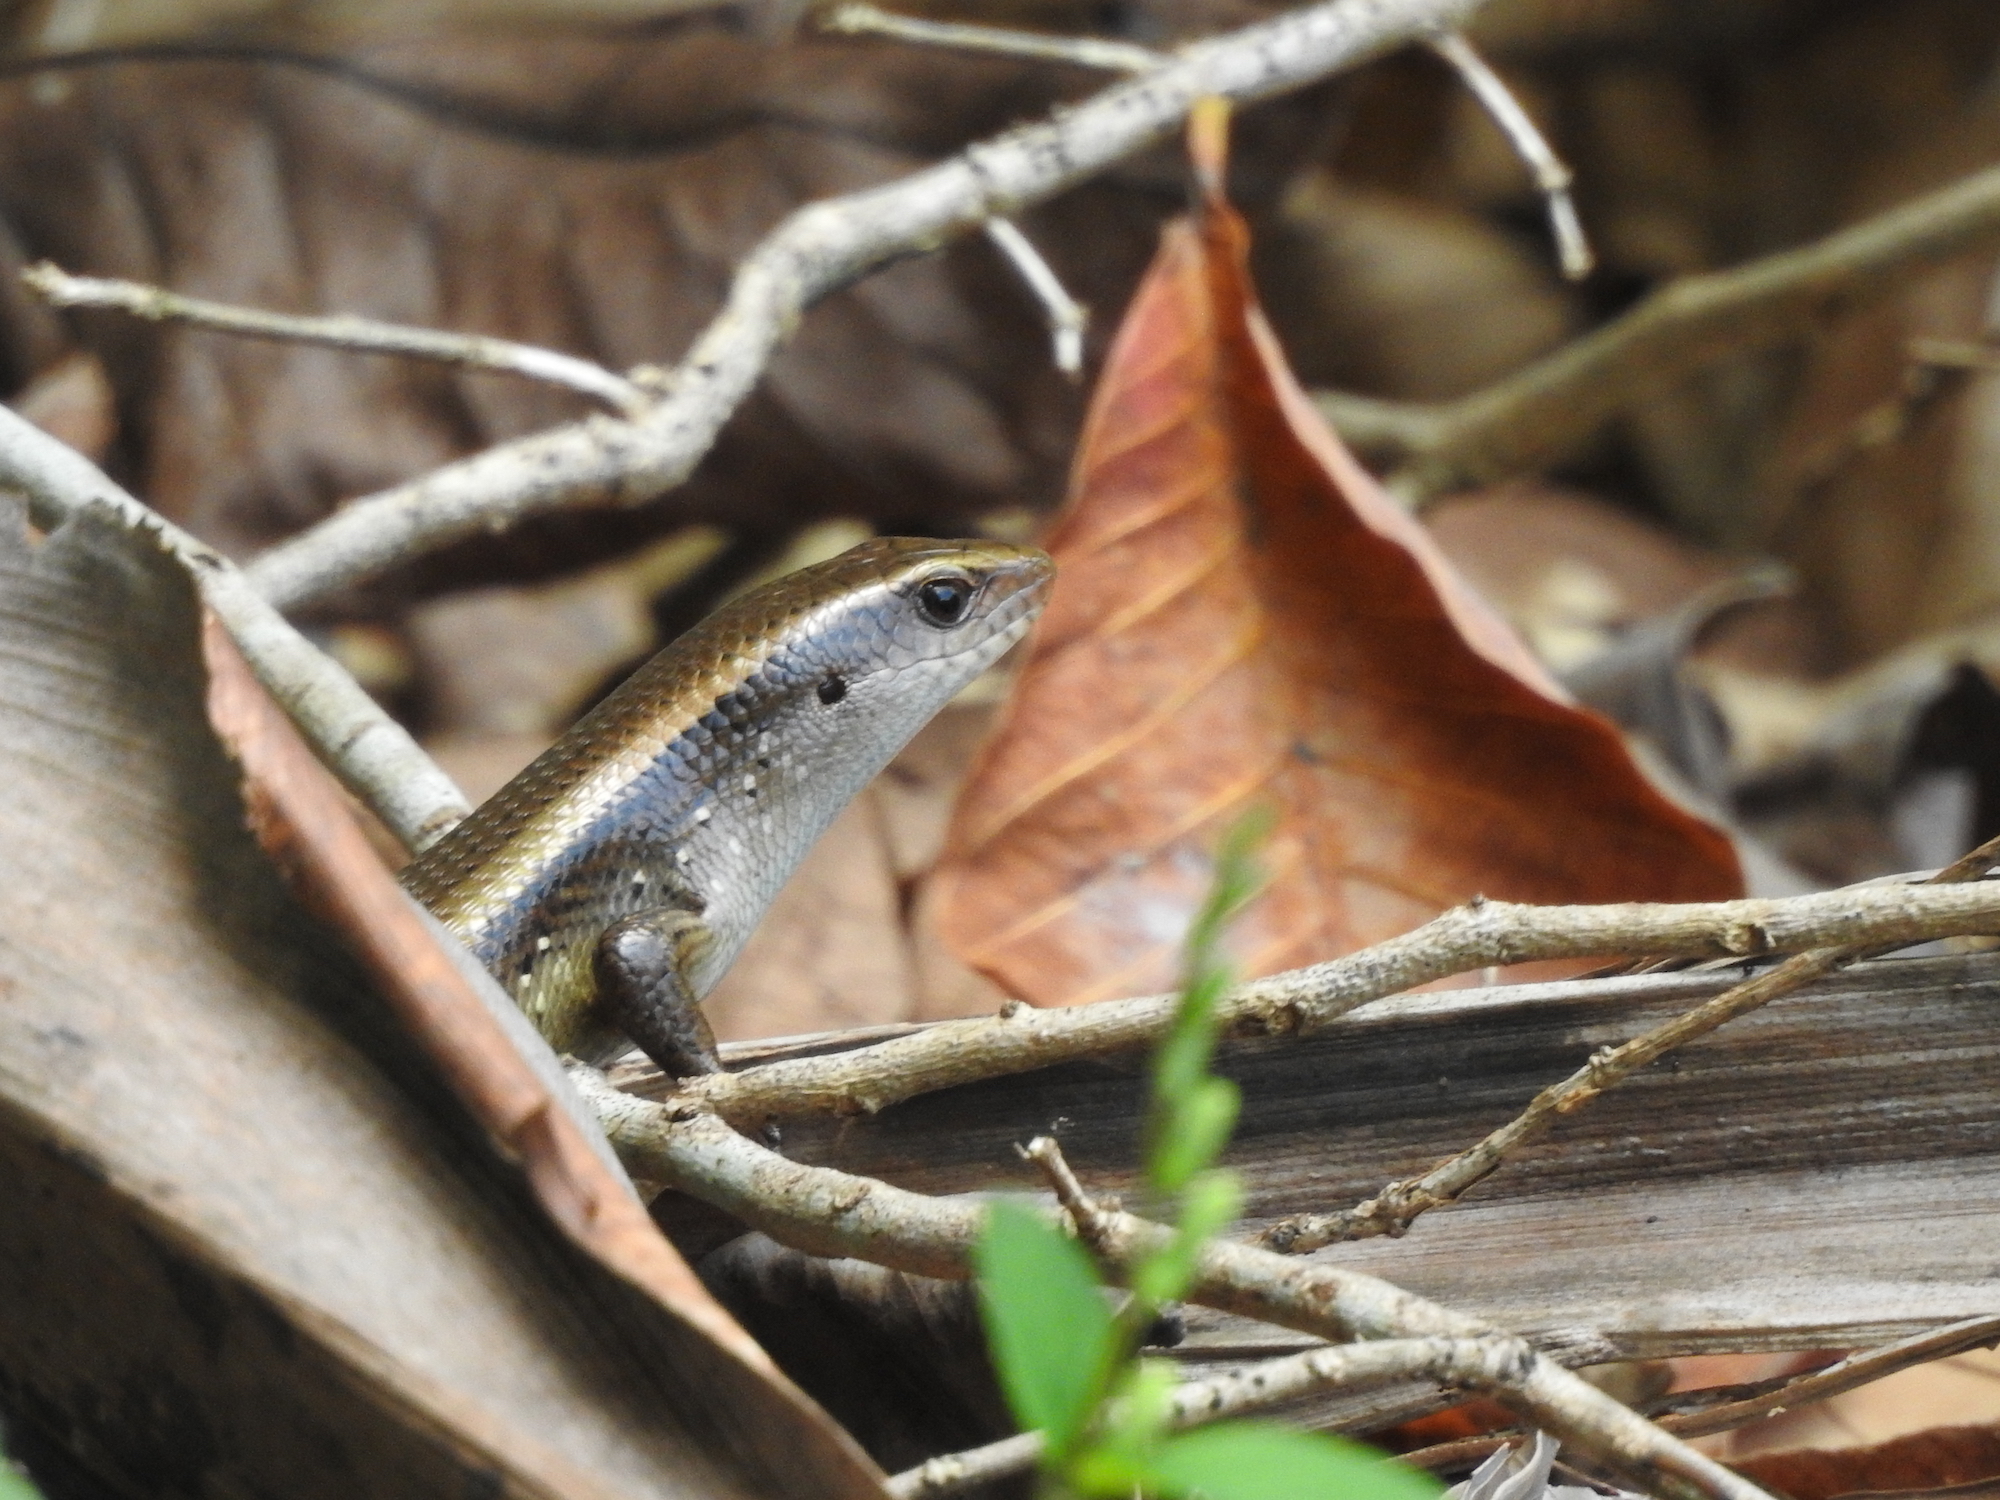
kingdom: Animalia
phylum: Chordata
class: Squamata
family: Scincidae
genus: Eutropis
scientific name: Eutropis multifasciata
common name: Common mabuya
